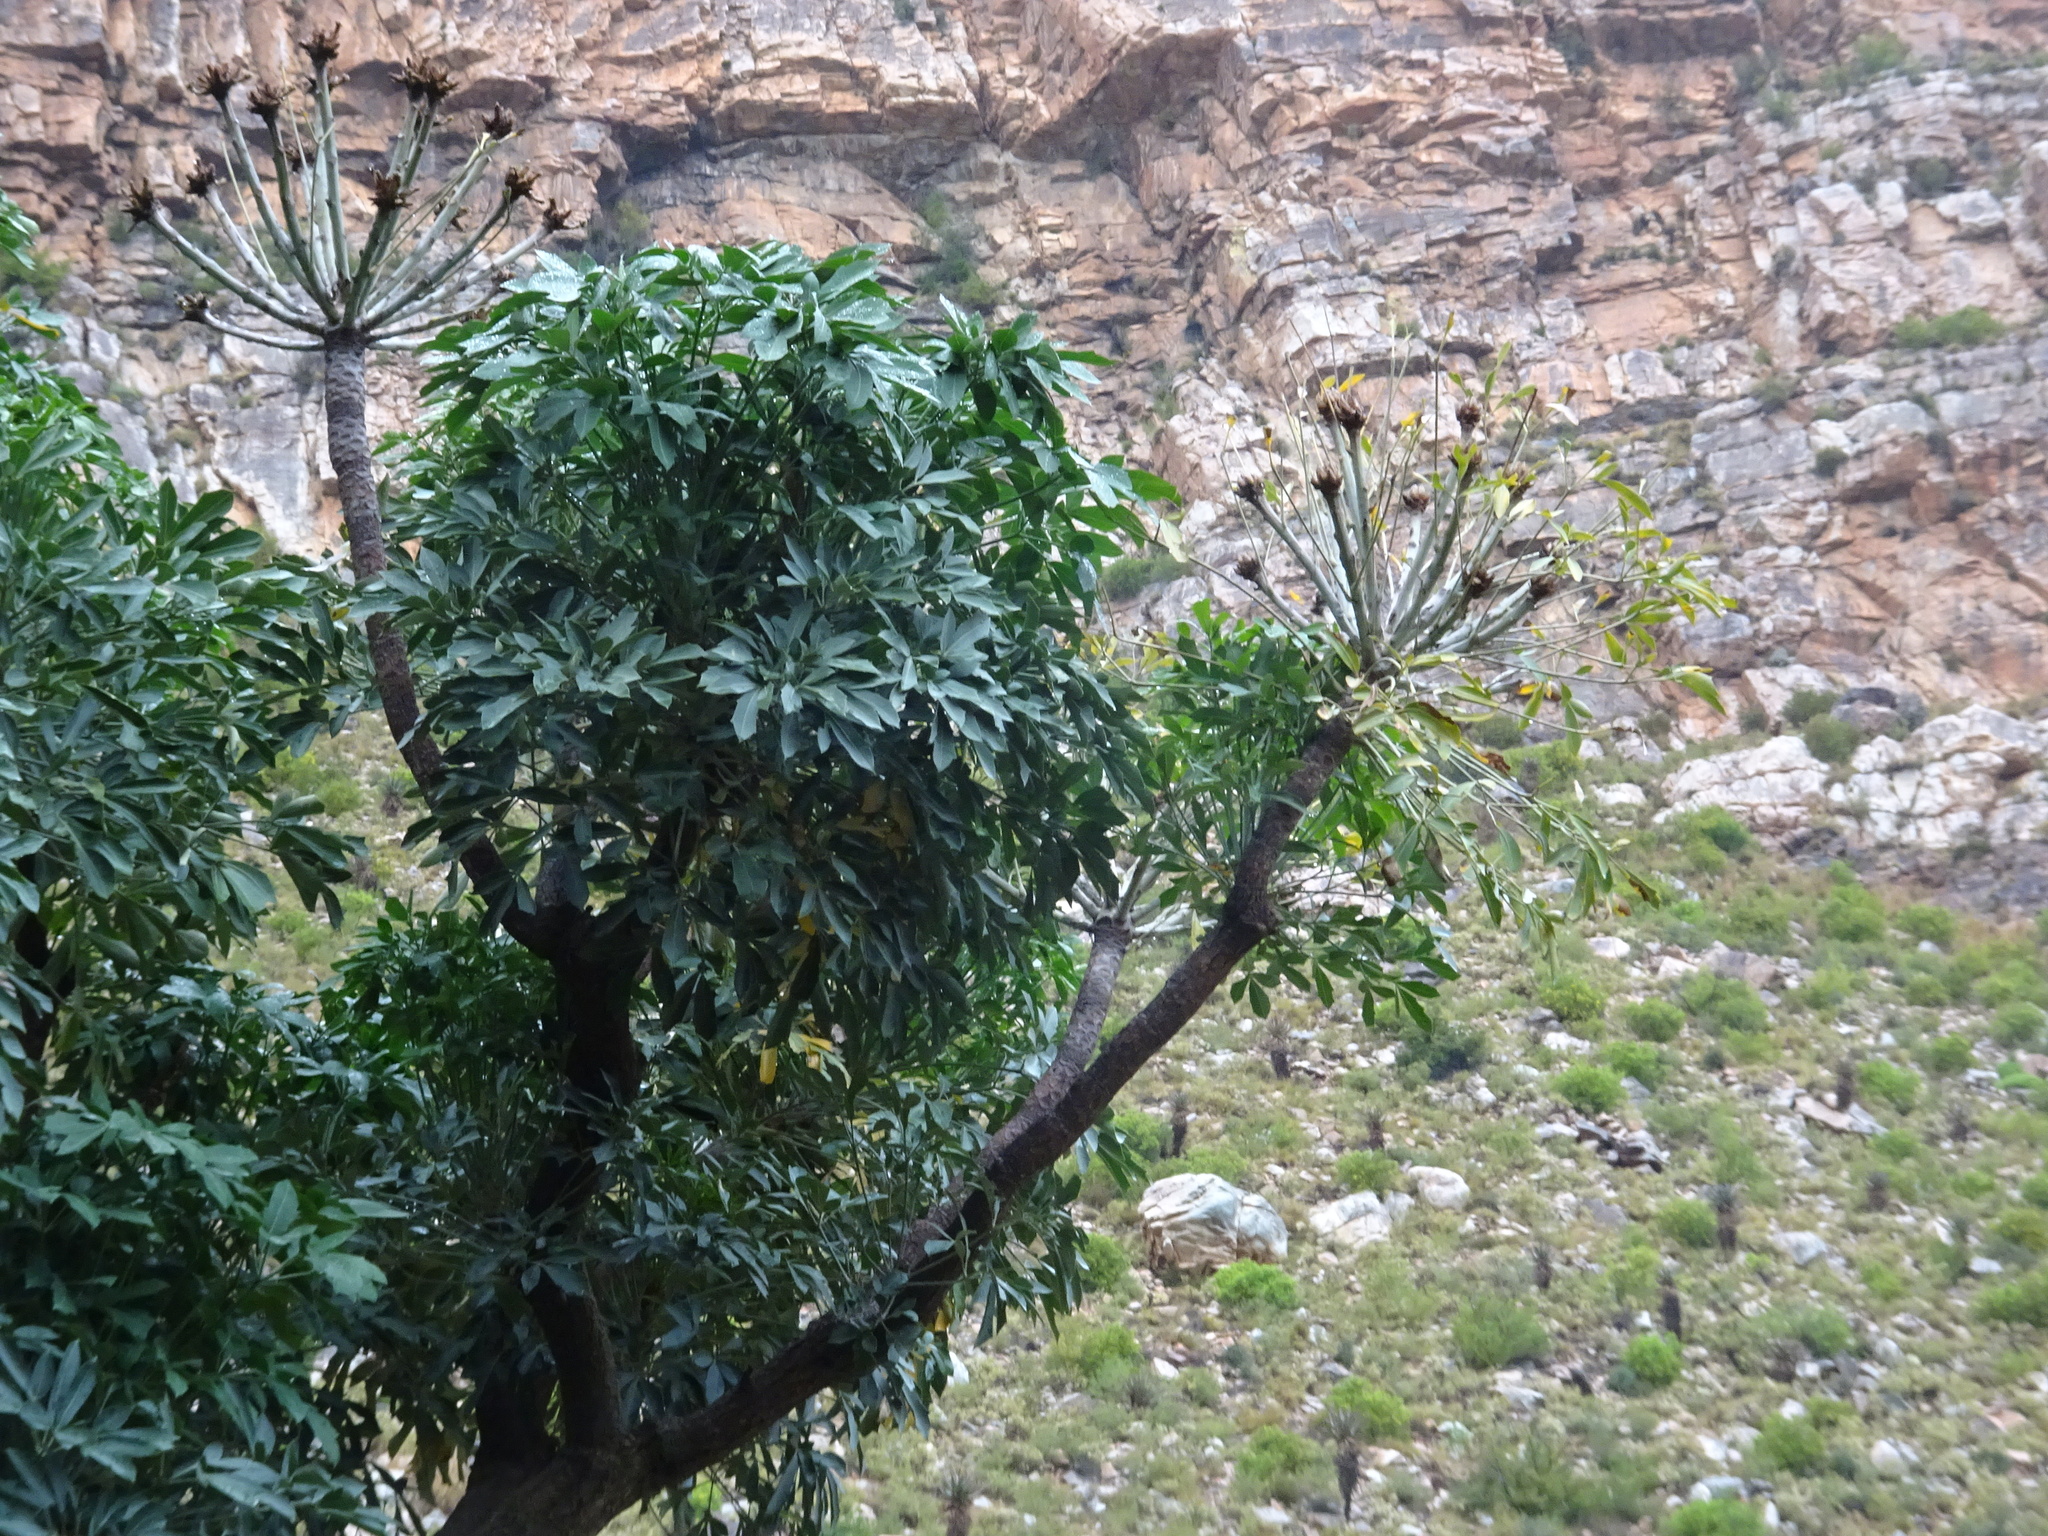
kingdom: Plantae
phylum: Tracheophyta
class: Magnoliopsida
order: Apiales
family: Araliaceae
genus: Cussonia
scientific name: Cussonia spicata
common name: Common cabbagetree
